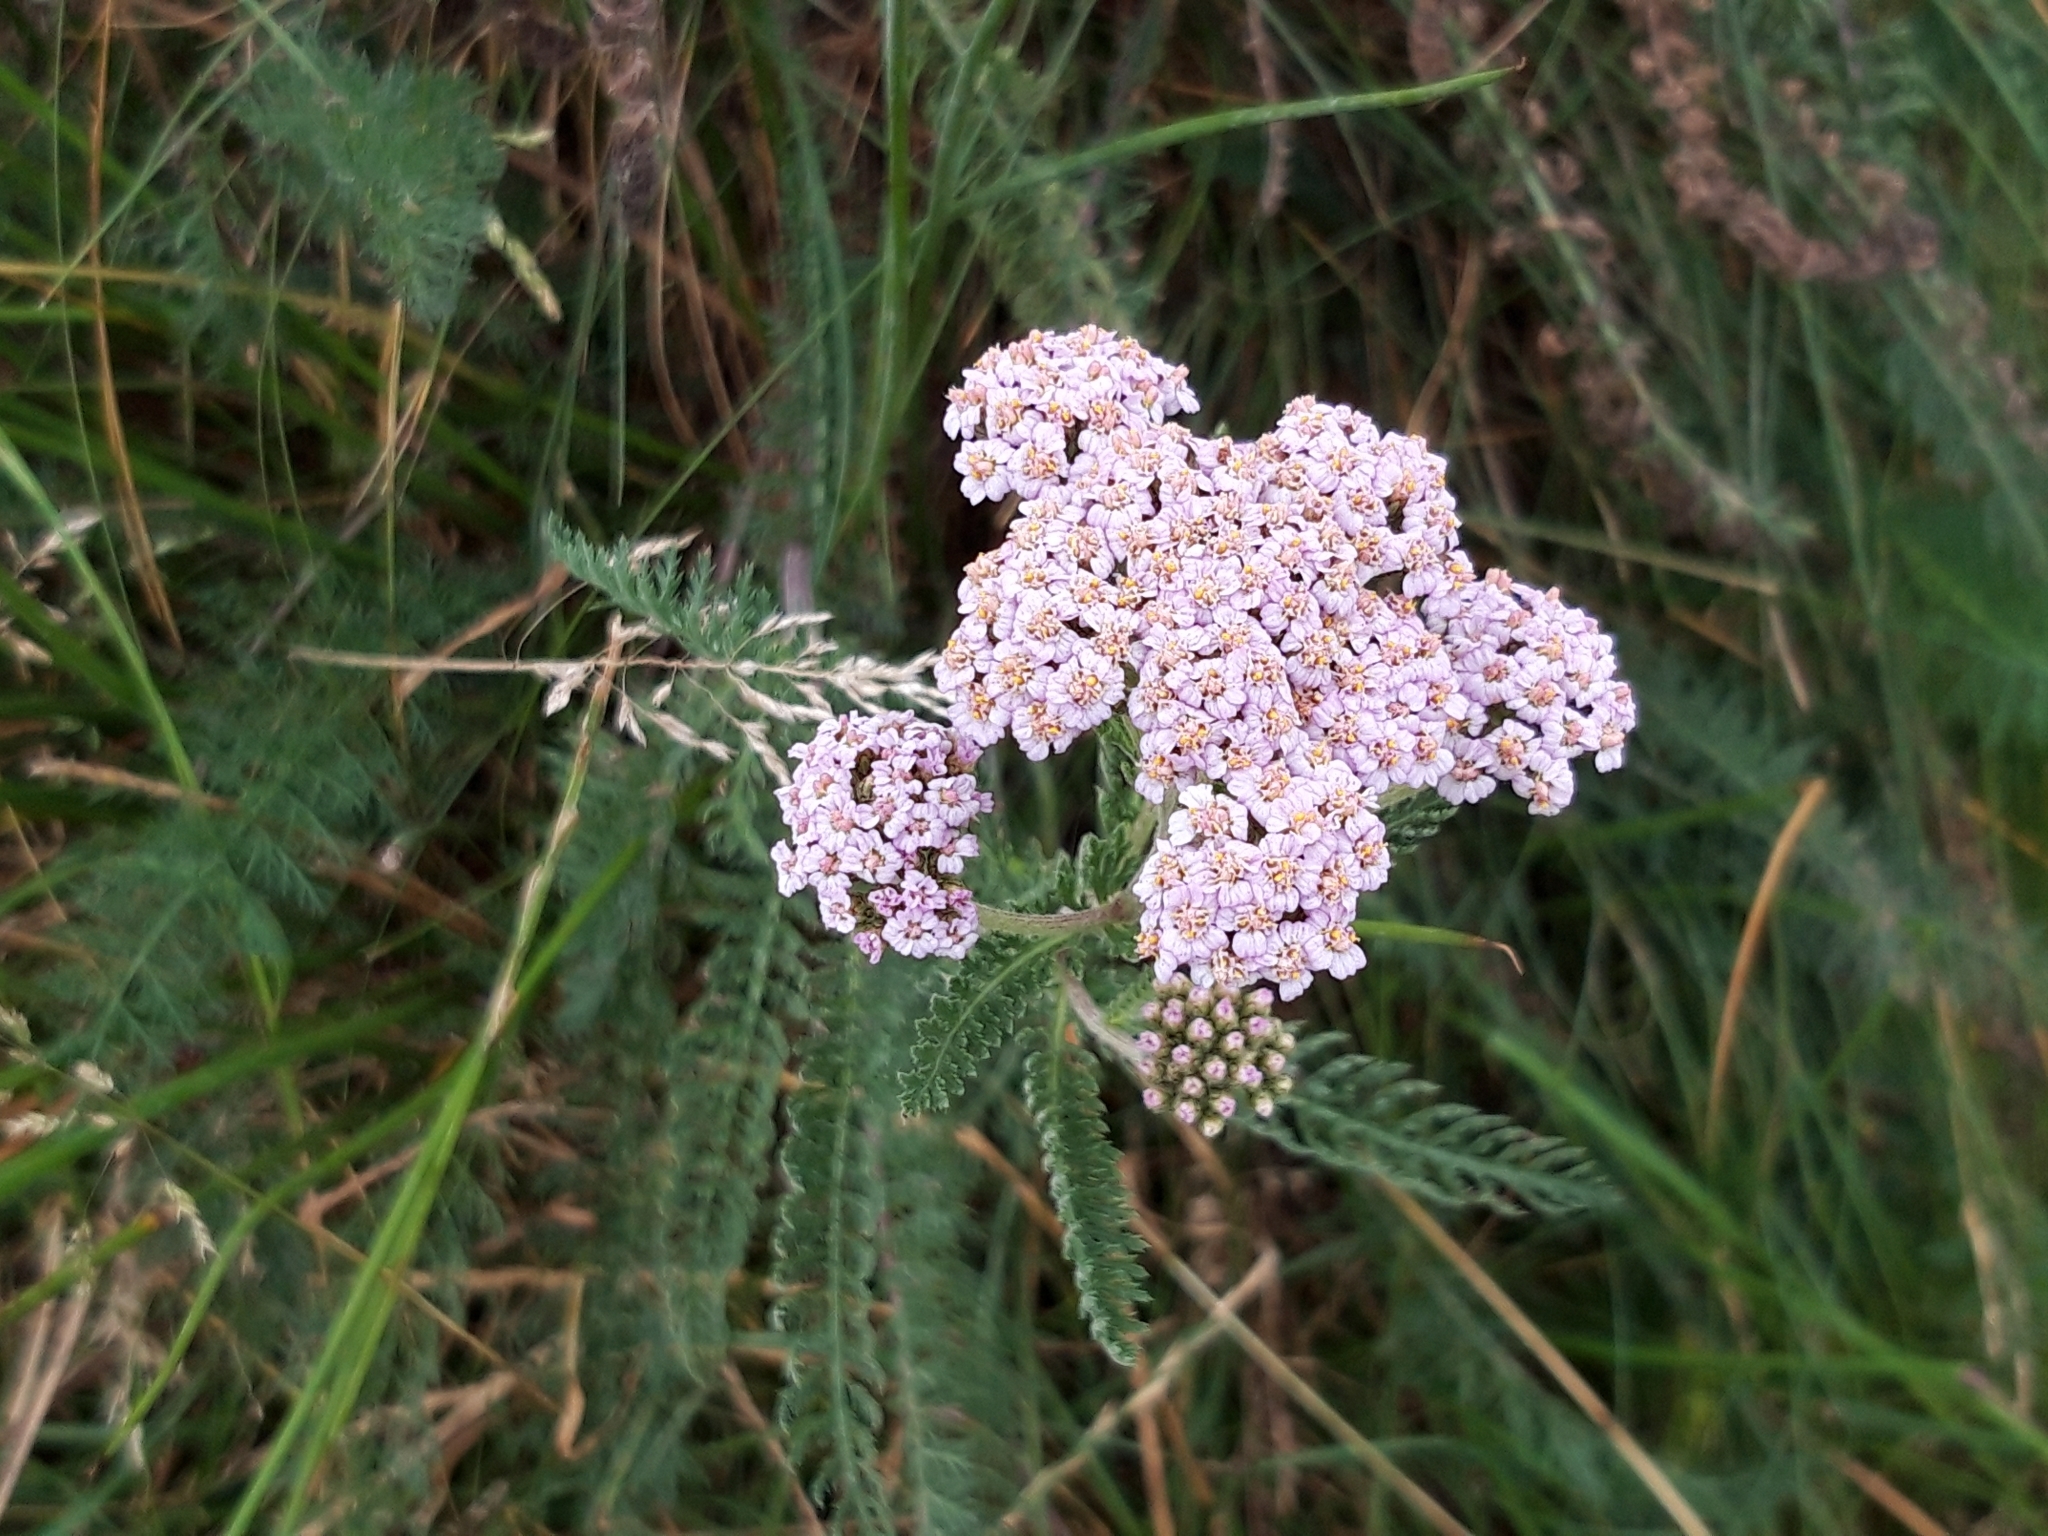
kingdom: Plantae
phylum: Tracheophyta
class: Magnoliopsida
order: Asterales
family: Asteraceae
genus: Achillea
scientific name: Achillea millefolium
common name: Yarrow
